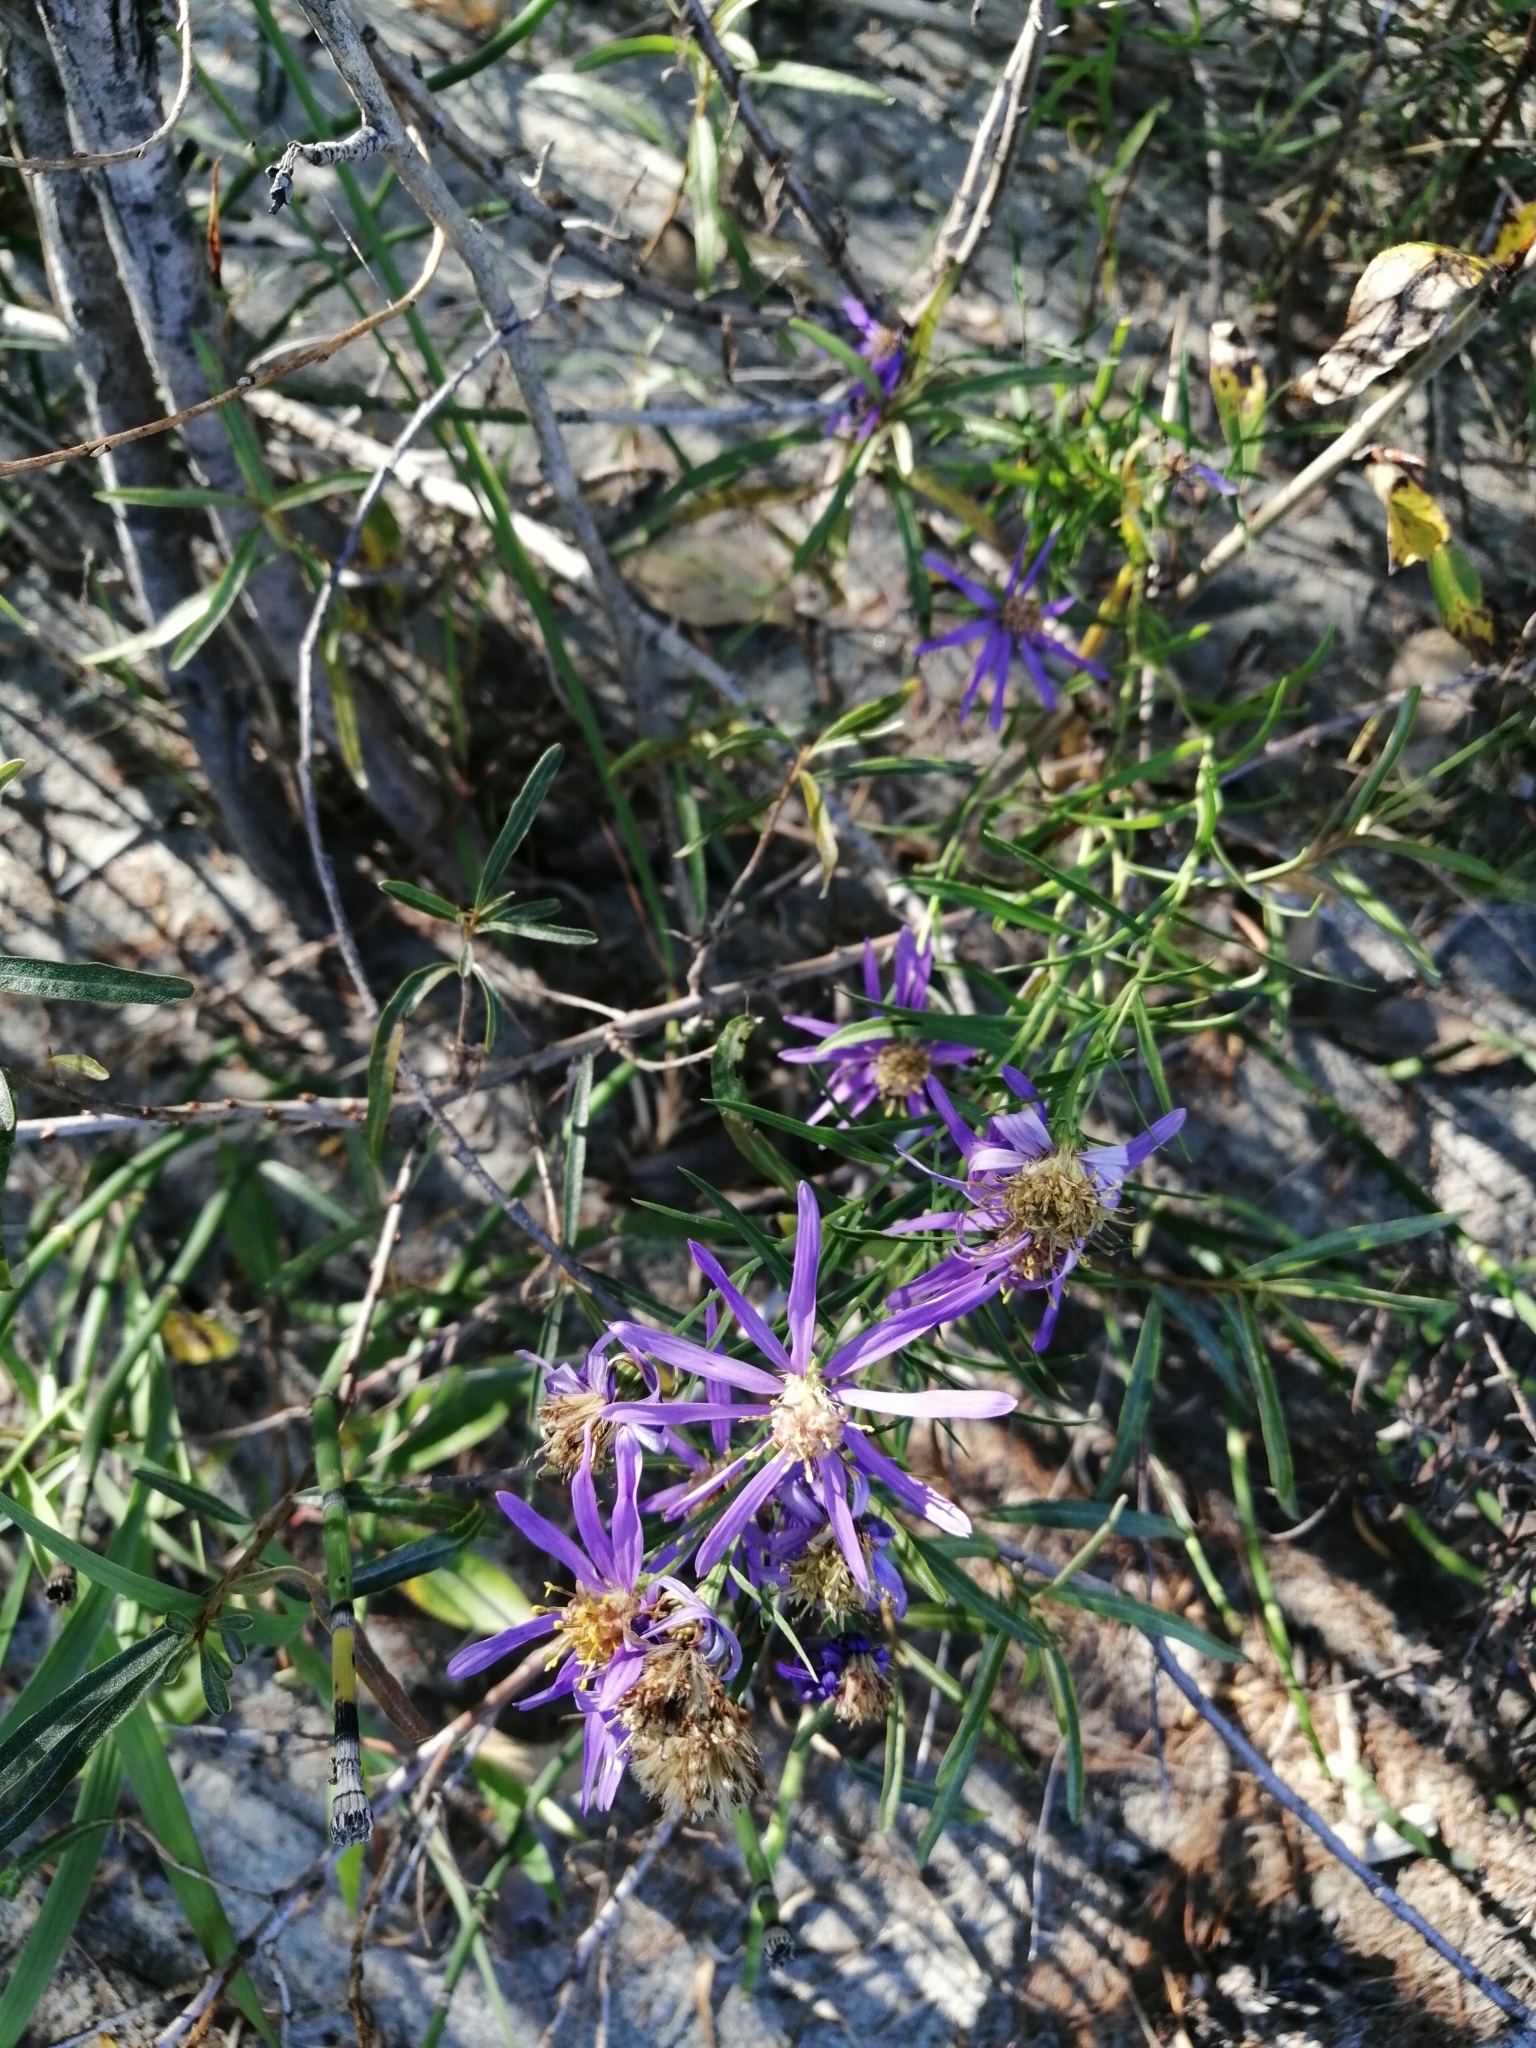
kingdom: Plantae
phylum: Tracheophyta
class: Magnoliopsida
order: Asterales
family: Asteraceae
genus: Galatella
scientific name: Galatella dahurica
